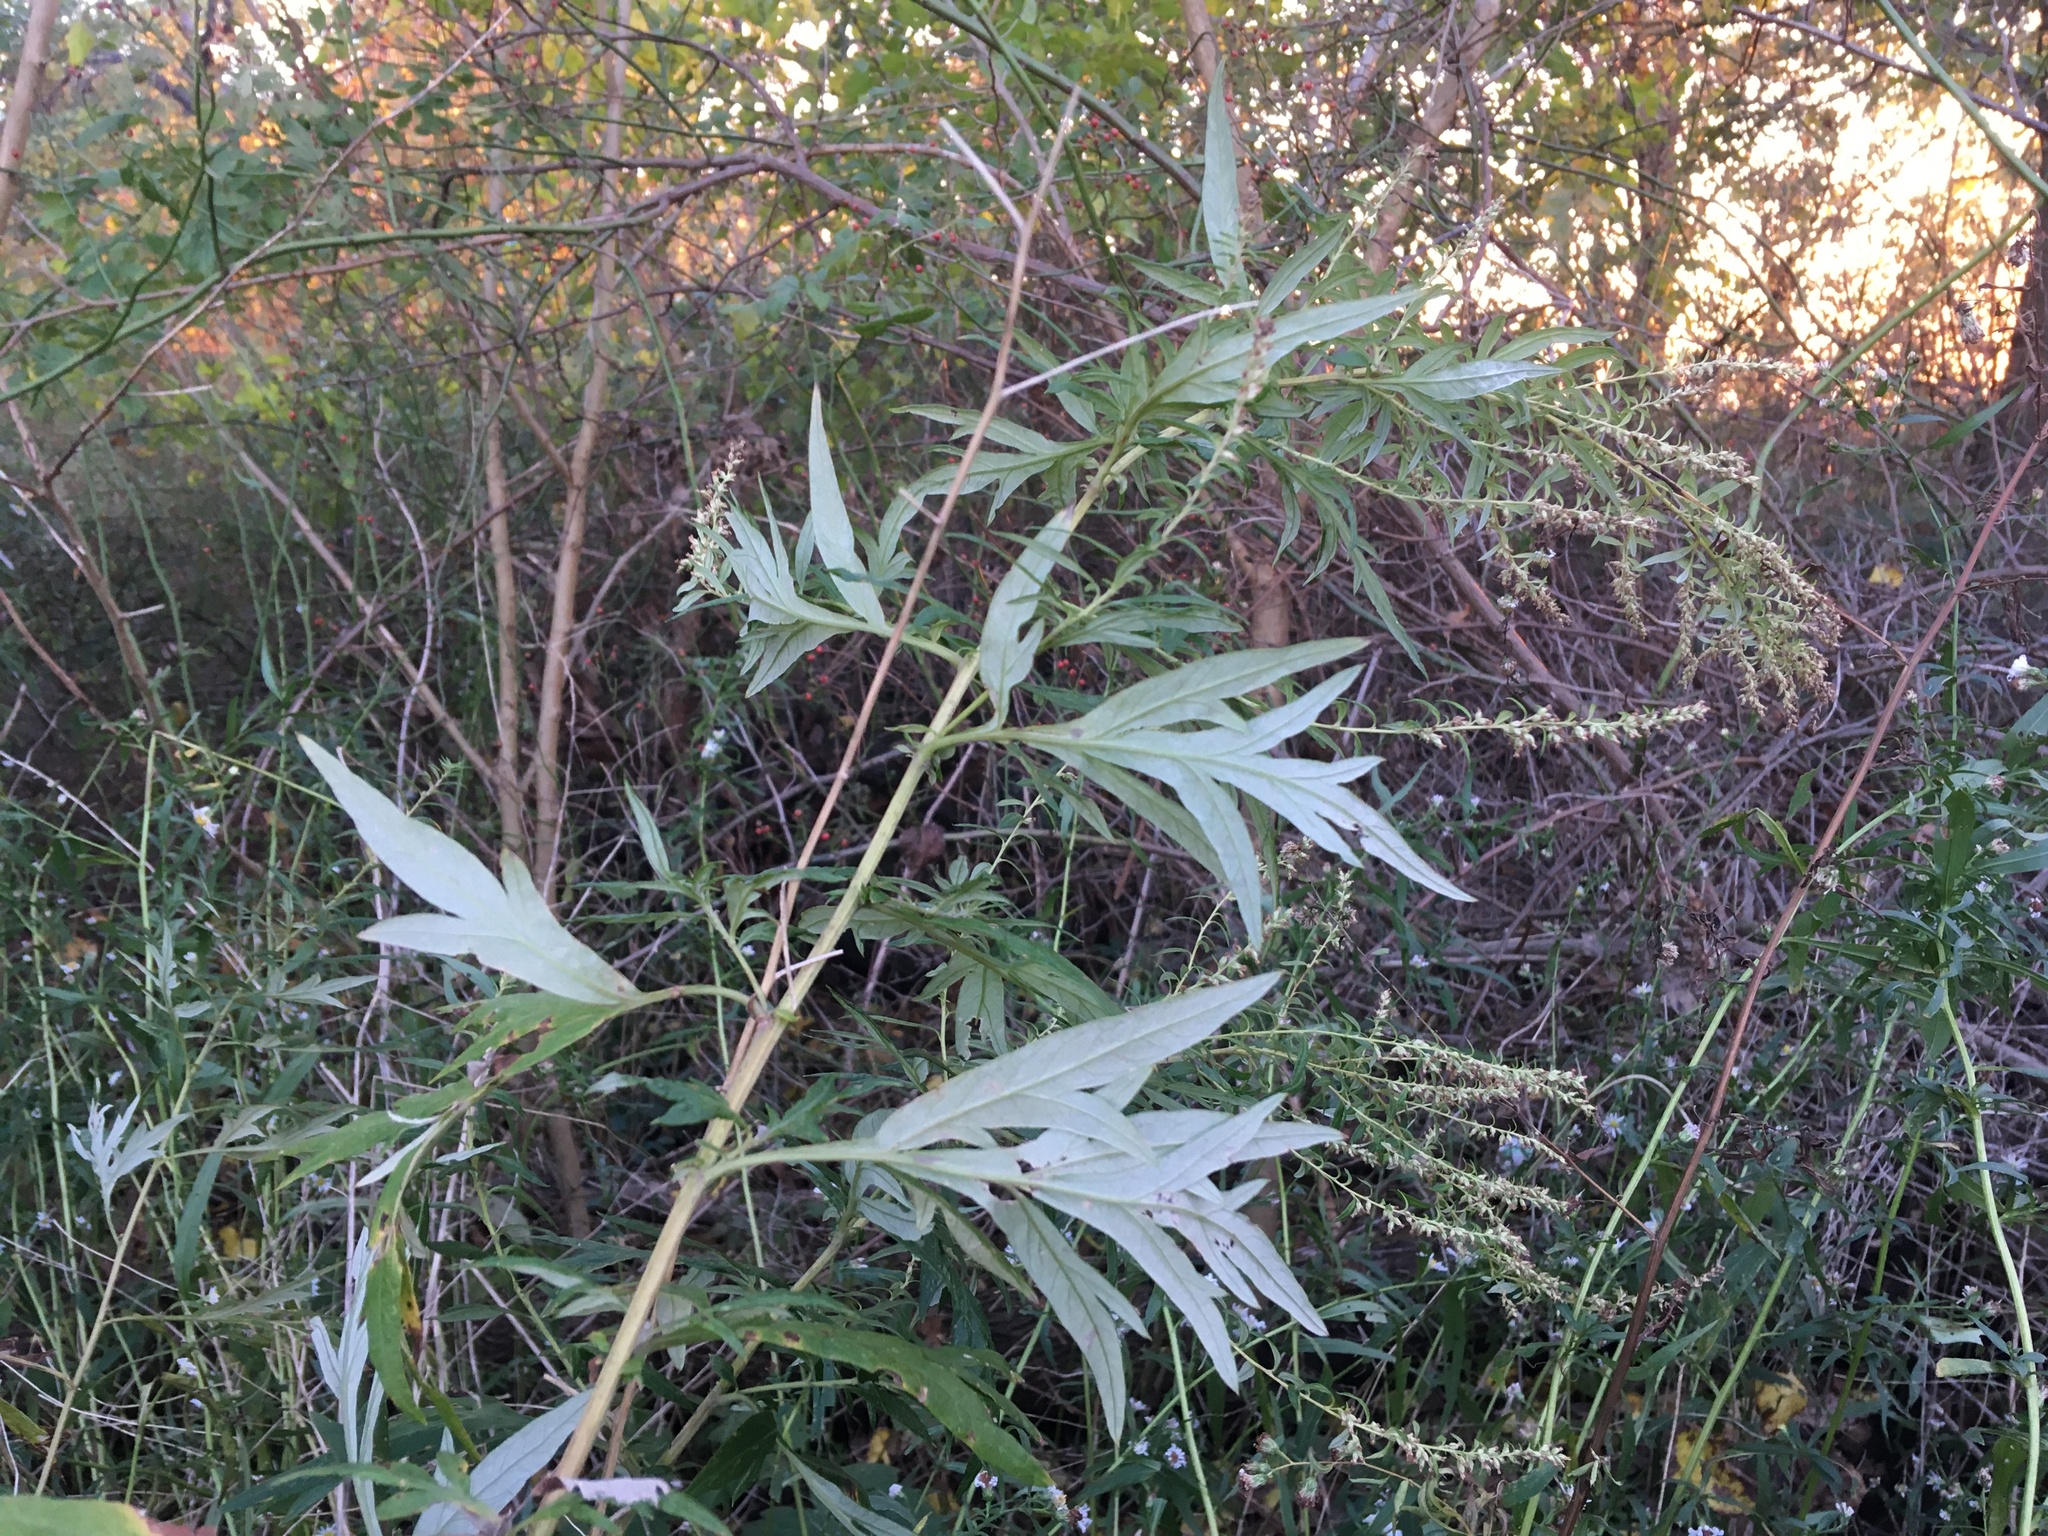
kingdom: Plantae
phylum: Tracheophyta
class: Magnoliopsida
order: Asterales
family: Asteraceae
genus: Artemisia
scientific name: Artemisia vulgaris
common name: Mugwort
